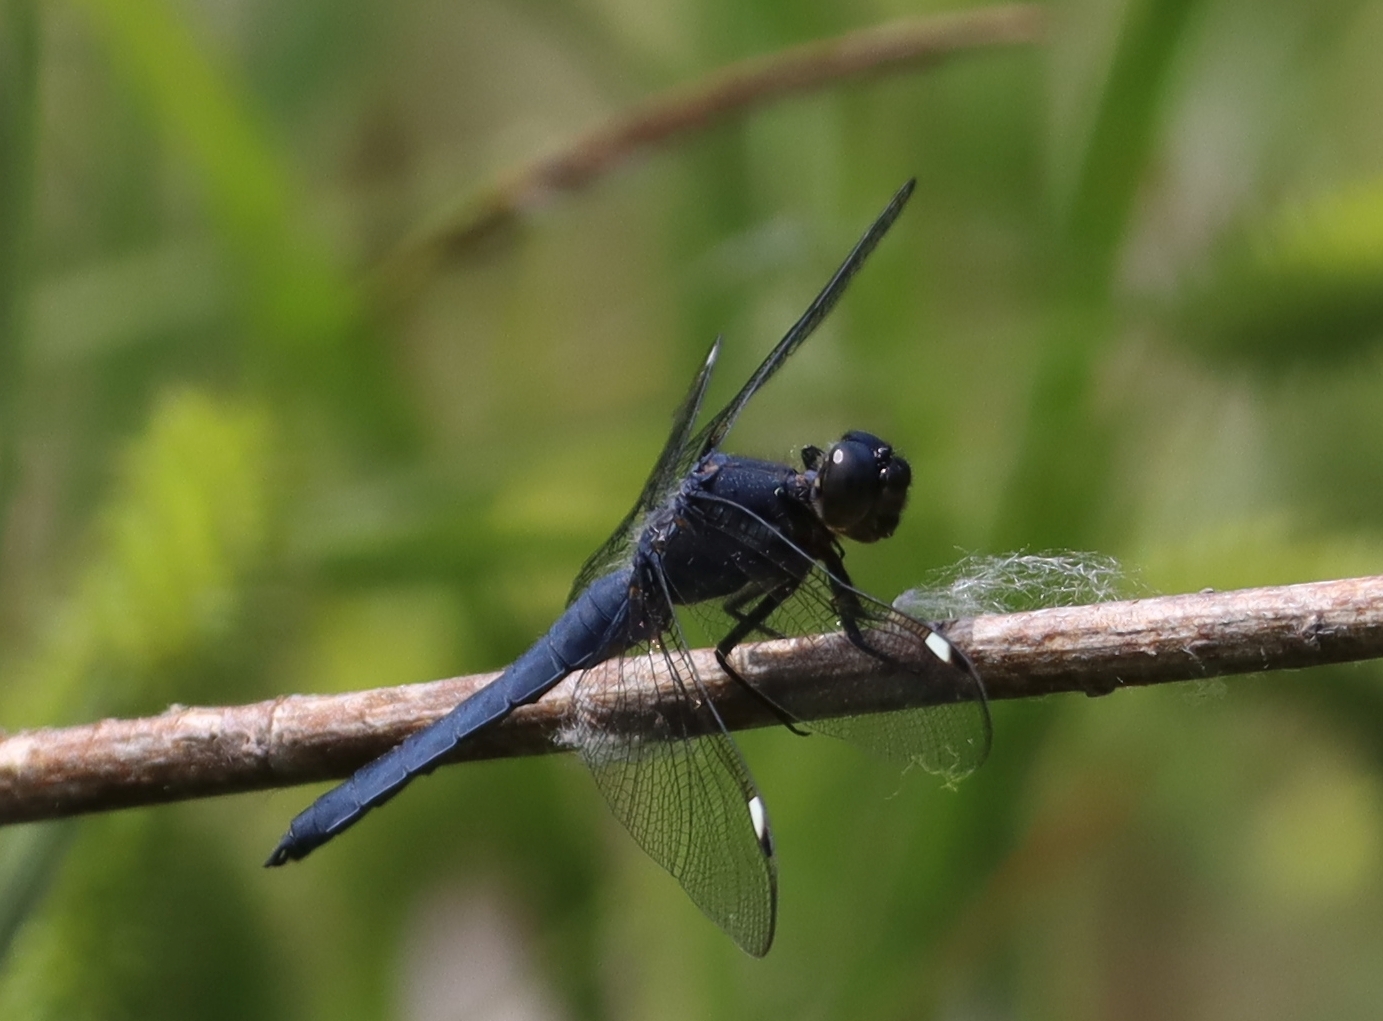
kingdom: Animalia
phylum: Arthropoda
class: Insecta
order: Odonata
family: Libellulidae
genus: Libellula
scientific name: Libellula cyanea
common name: Spangled skimmer
